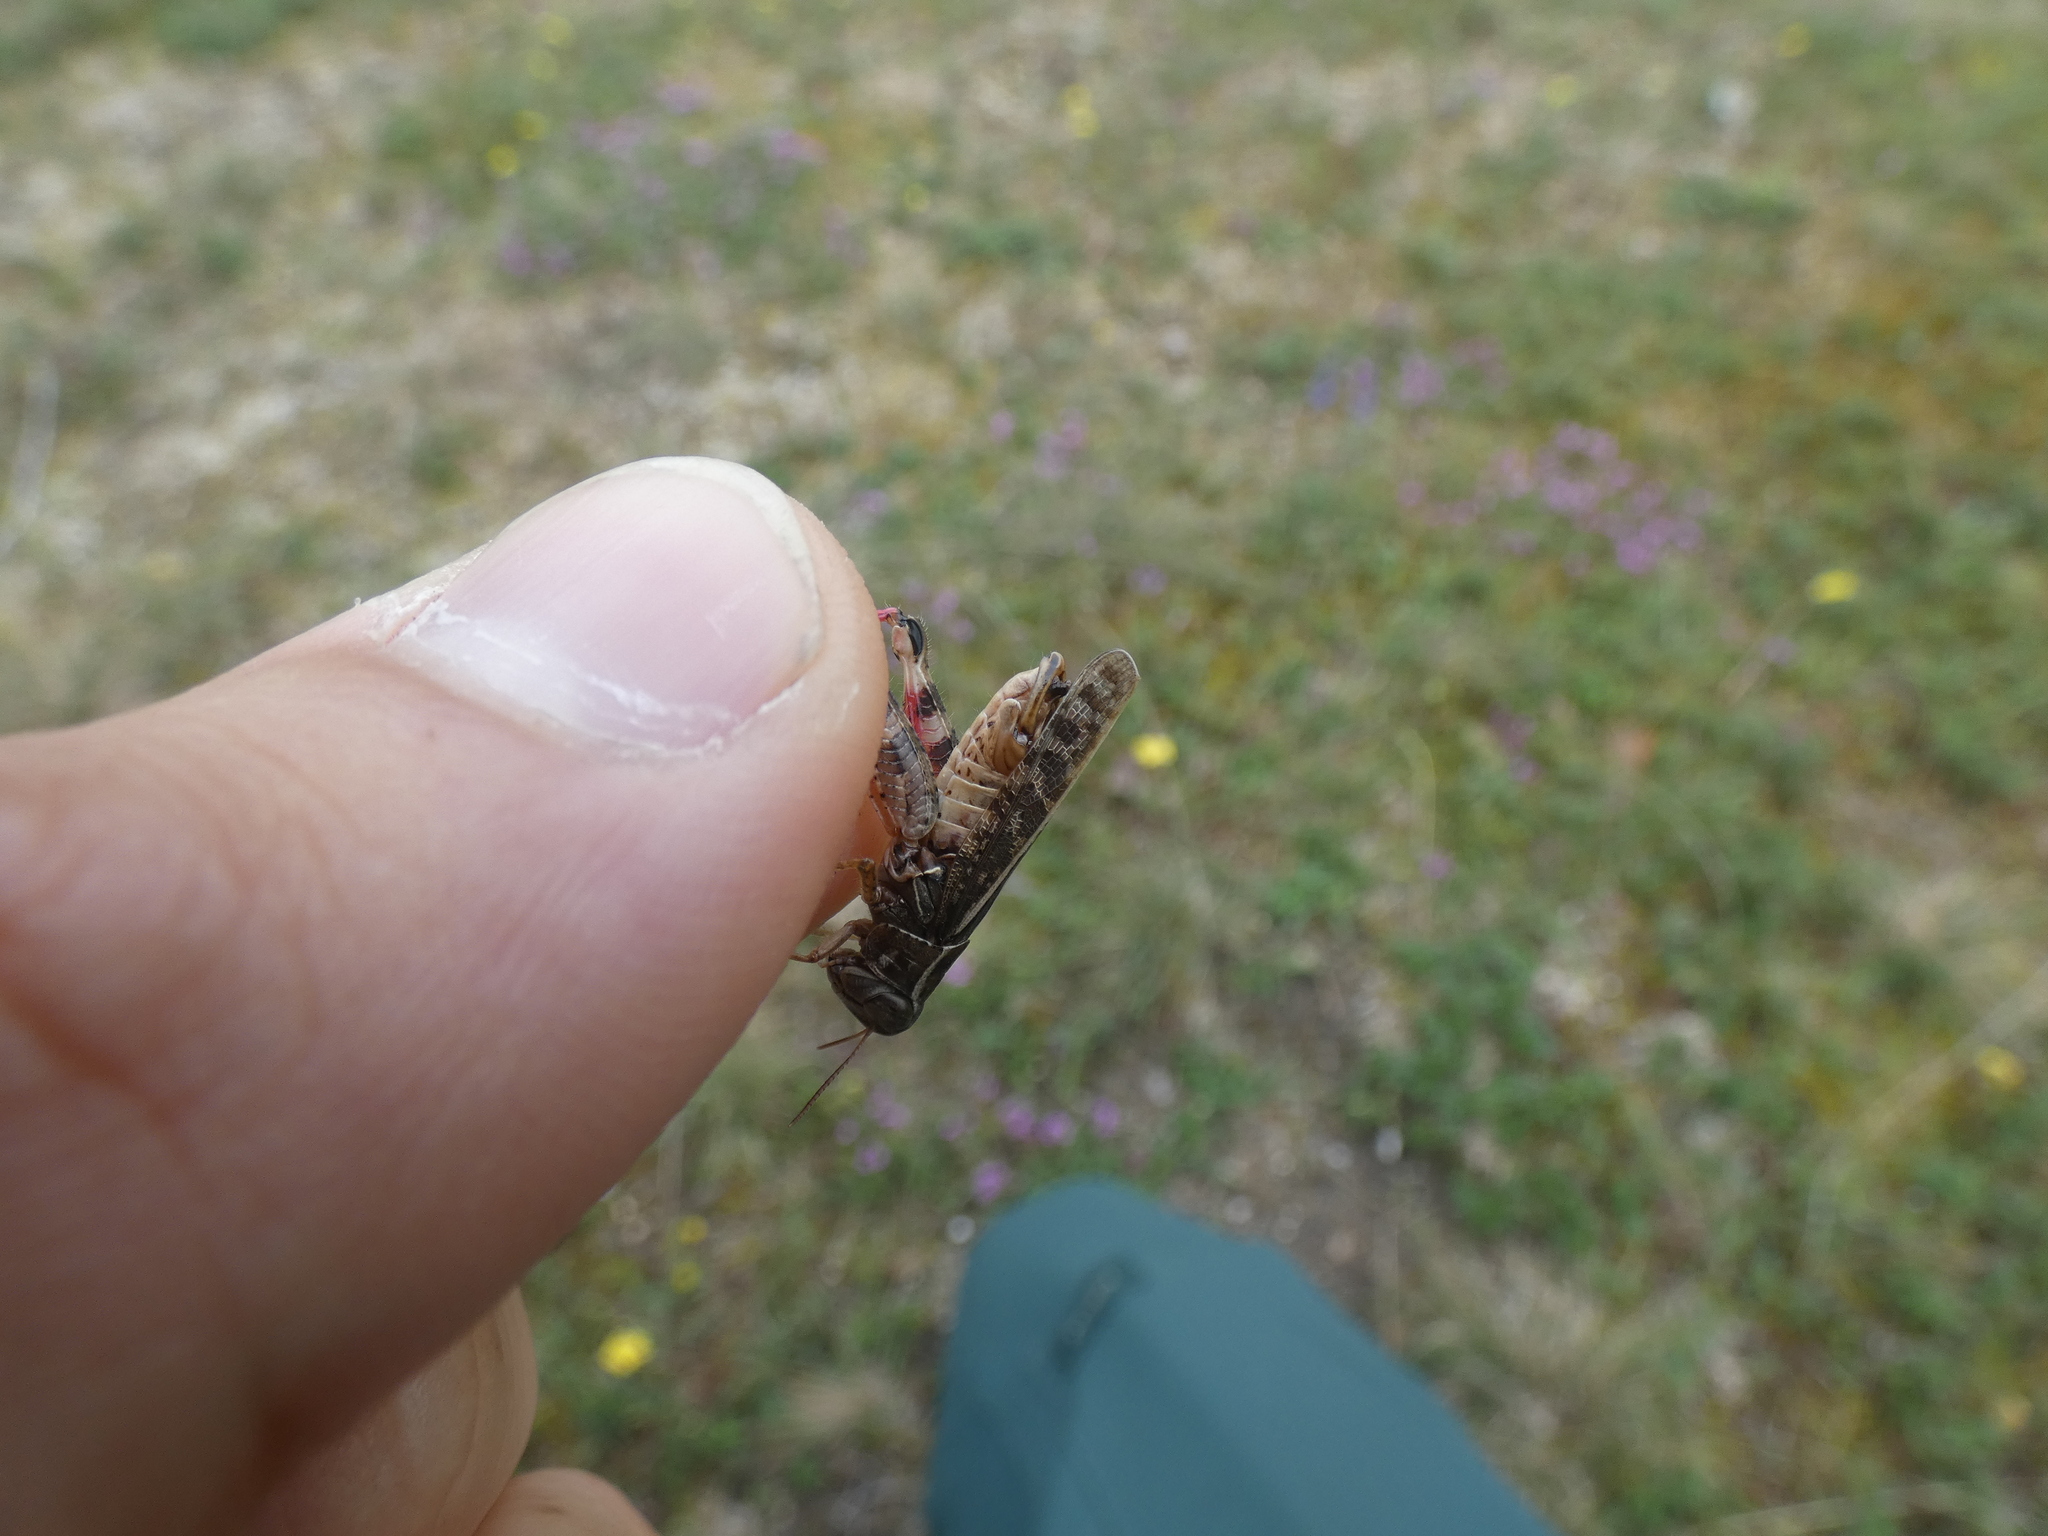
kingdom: Animalia
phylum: Arthropoda
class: Insecta
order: Orthoptera
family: Acrididae
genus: Calliptamus
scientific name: Calliptamus italicus
